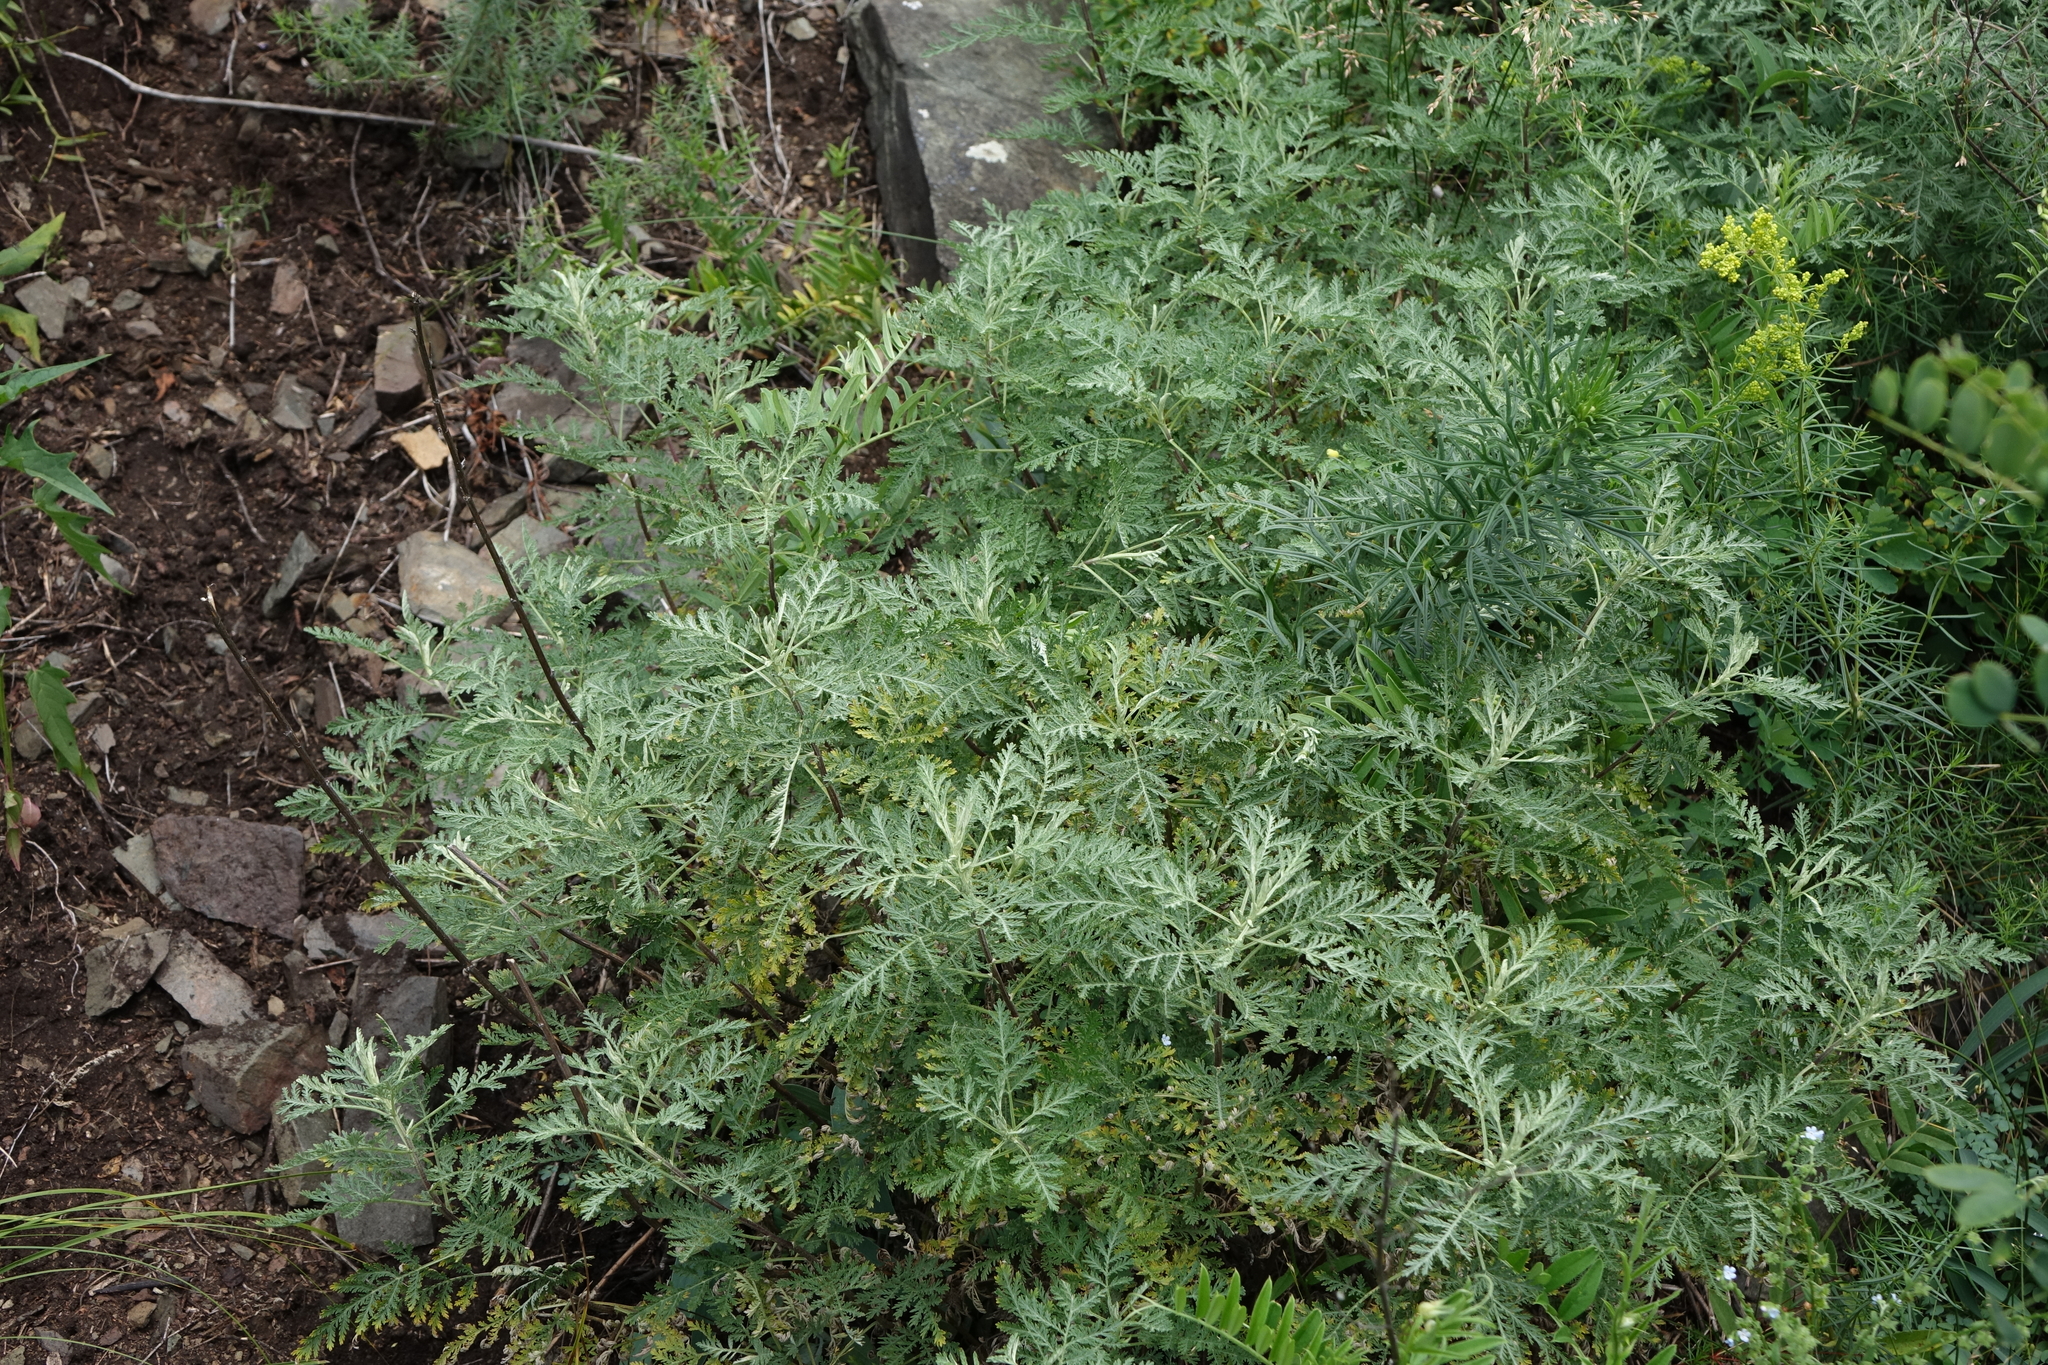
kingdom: Plantae
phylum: Tracheophyta
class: Magnoliopsida
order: Asterales
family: Asteraceae
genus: Artemisia
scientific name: Artemisia gmelinii
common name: Gmelin's wormwood
